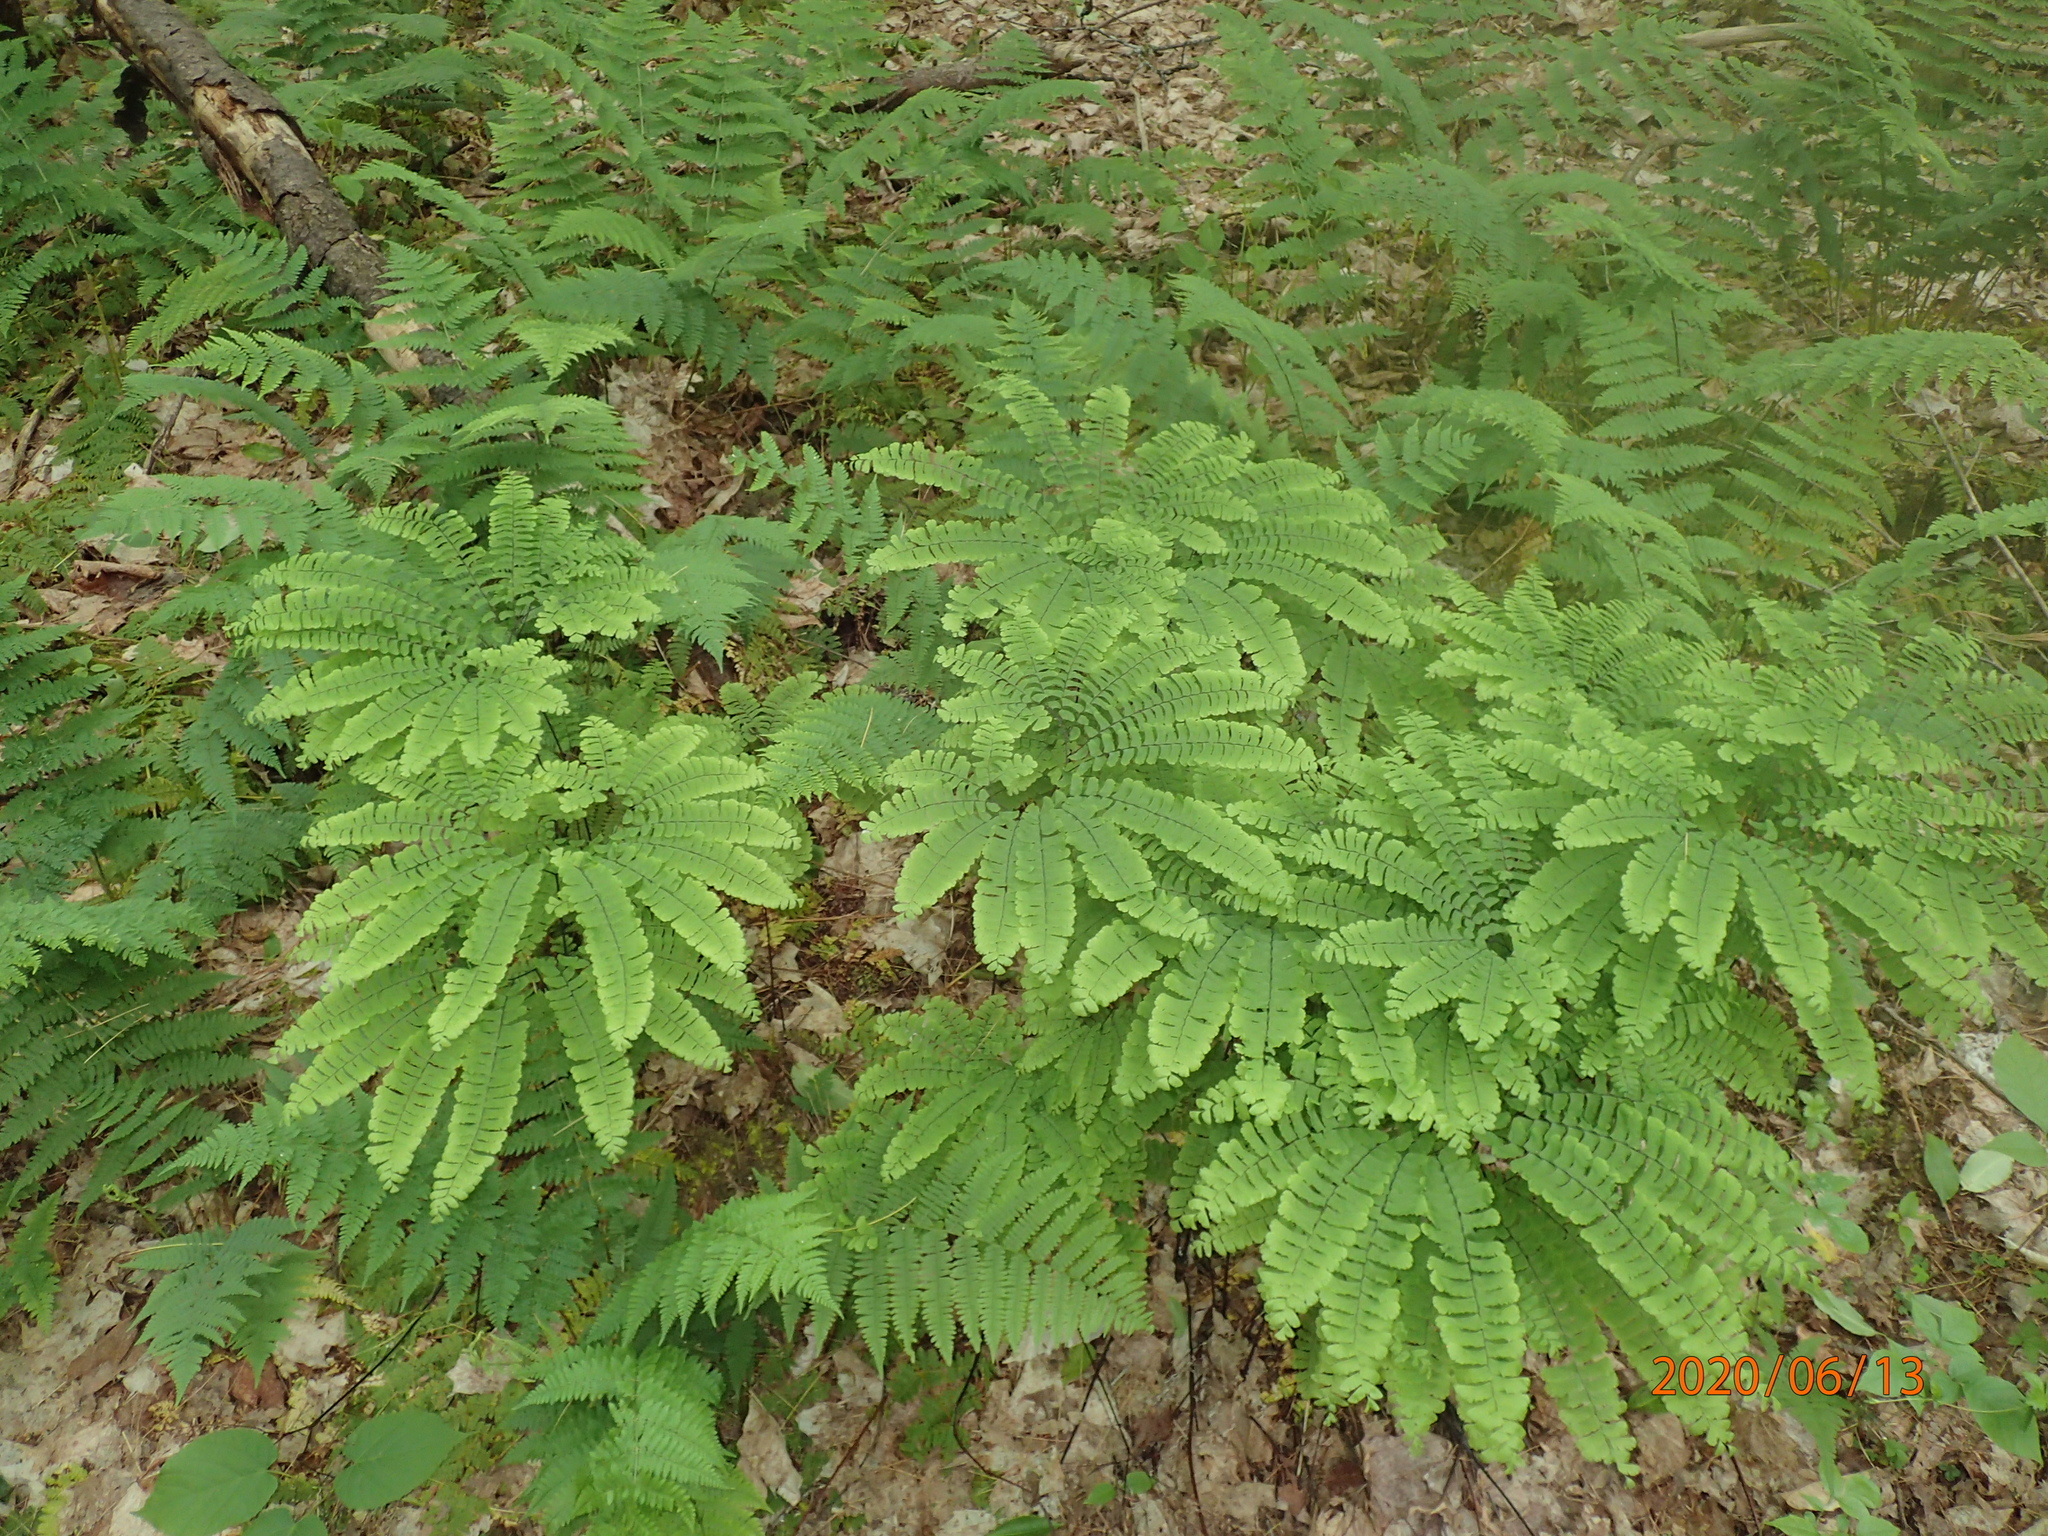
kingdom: Plantae
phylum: Tracheophyta
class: Polypodiopsida
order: Polypodiales
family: Pteridaceae
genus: Adiantum
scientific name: Adiantum pedatum
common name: Five-finger fern
